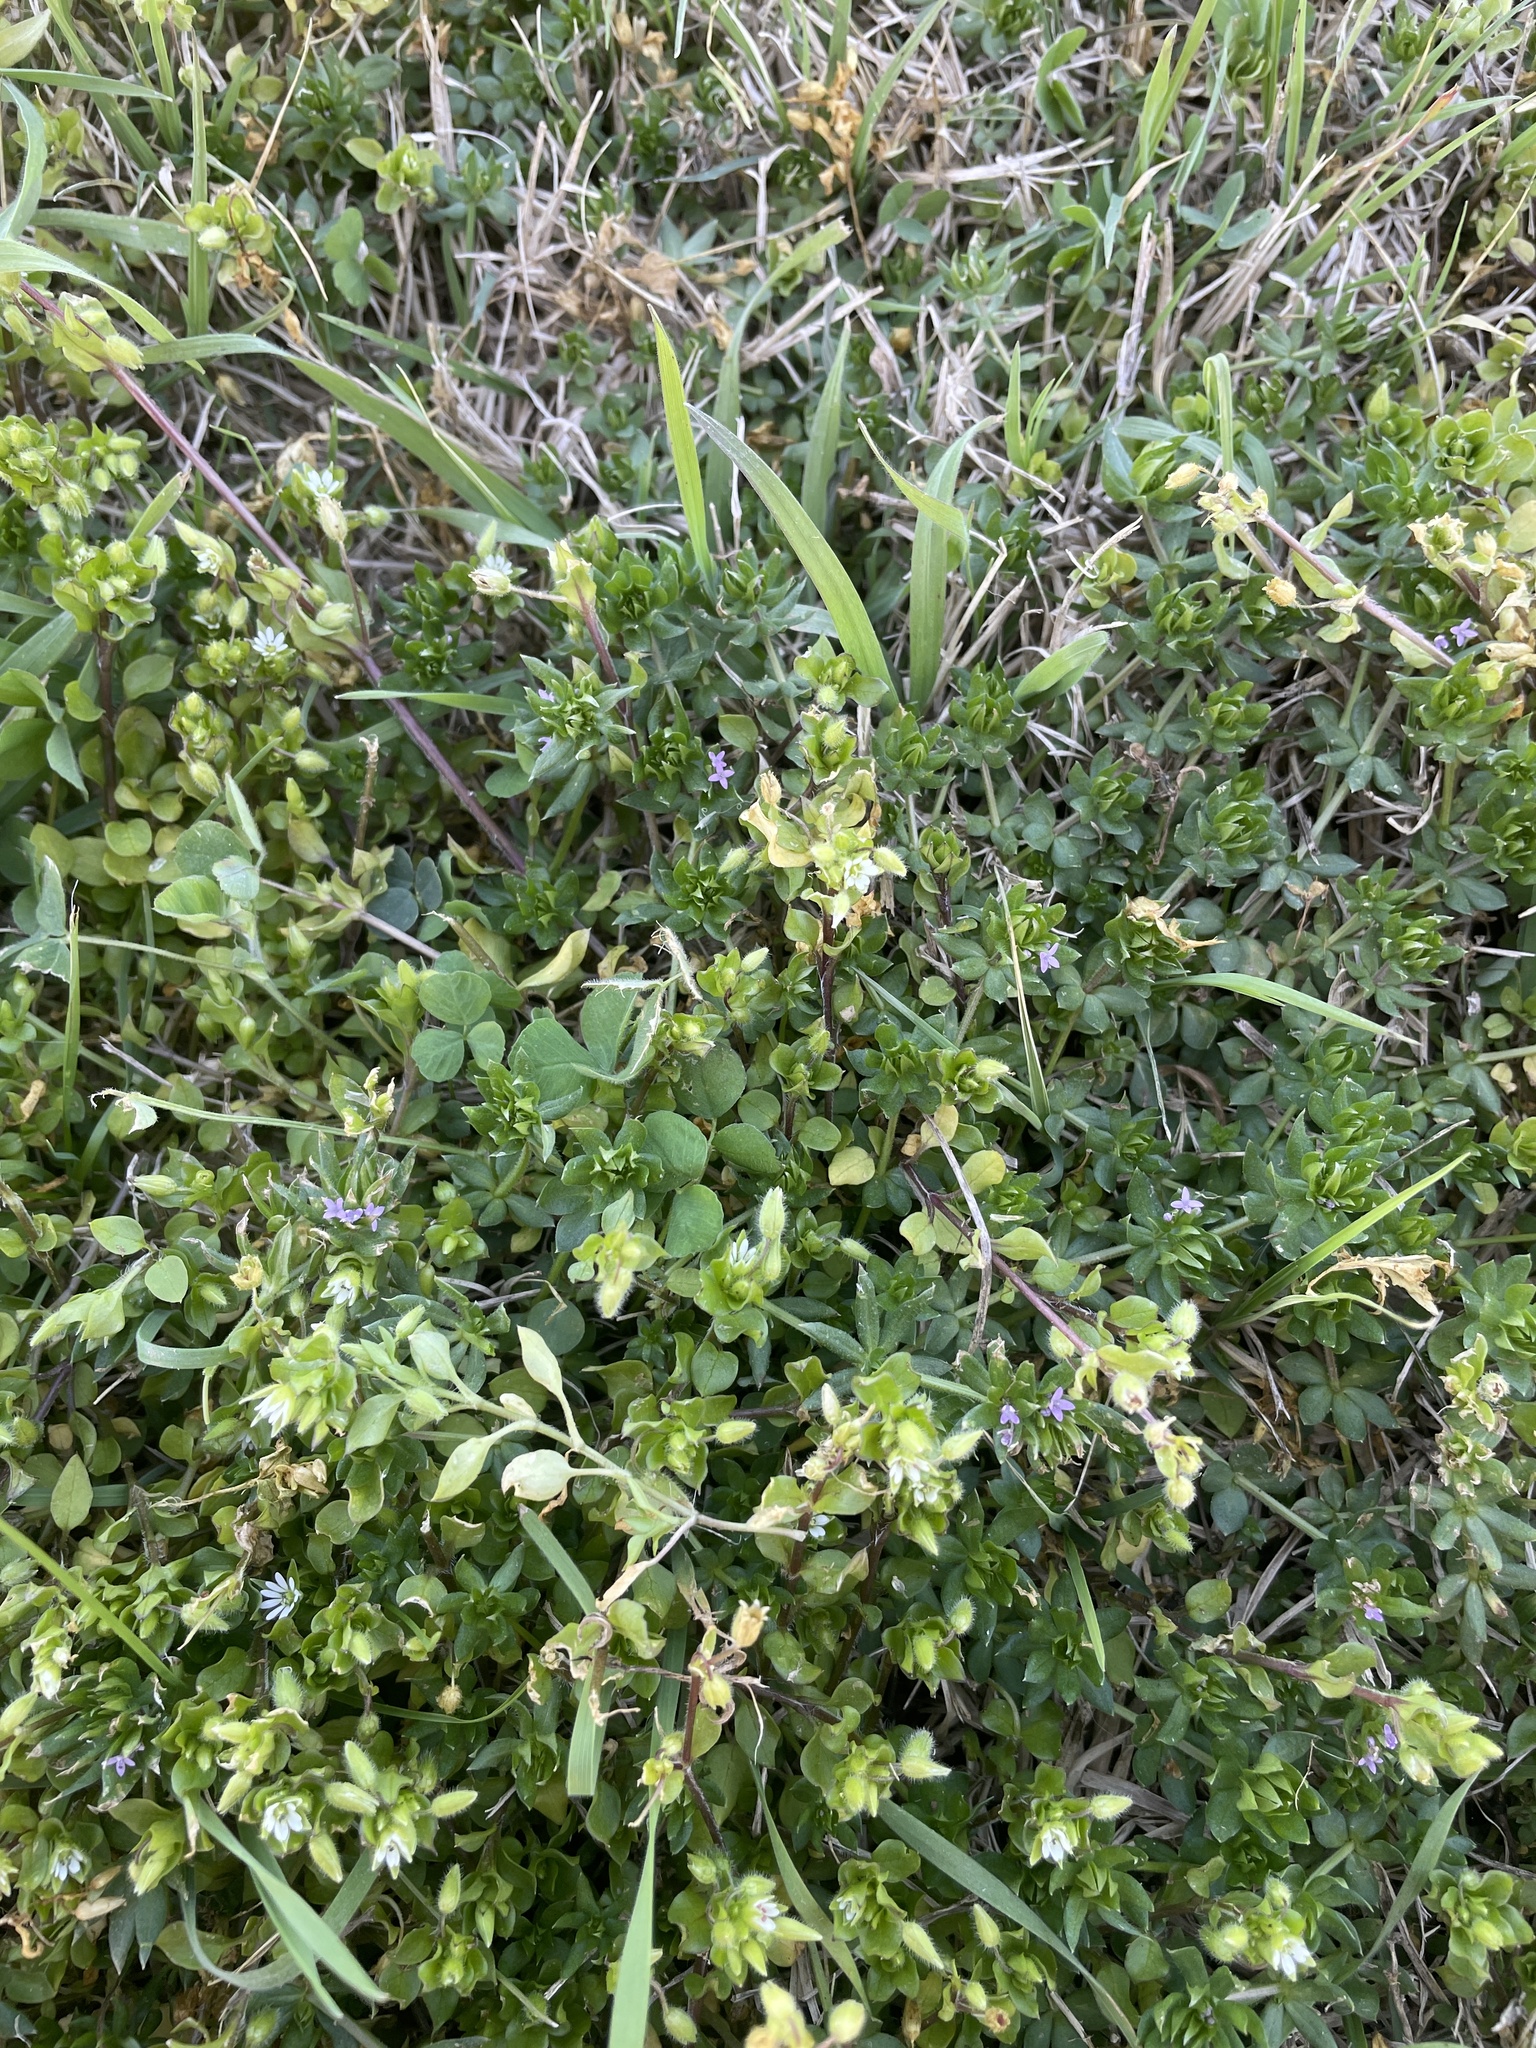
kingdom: Plantae
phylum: Tracheophyta
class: Magnoliopsida
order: Gentianales
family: Rubiaceae
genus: Sherardia
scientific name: Sherardia arvensis
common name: Field madder
